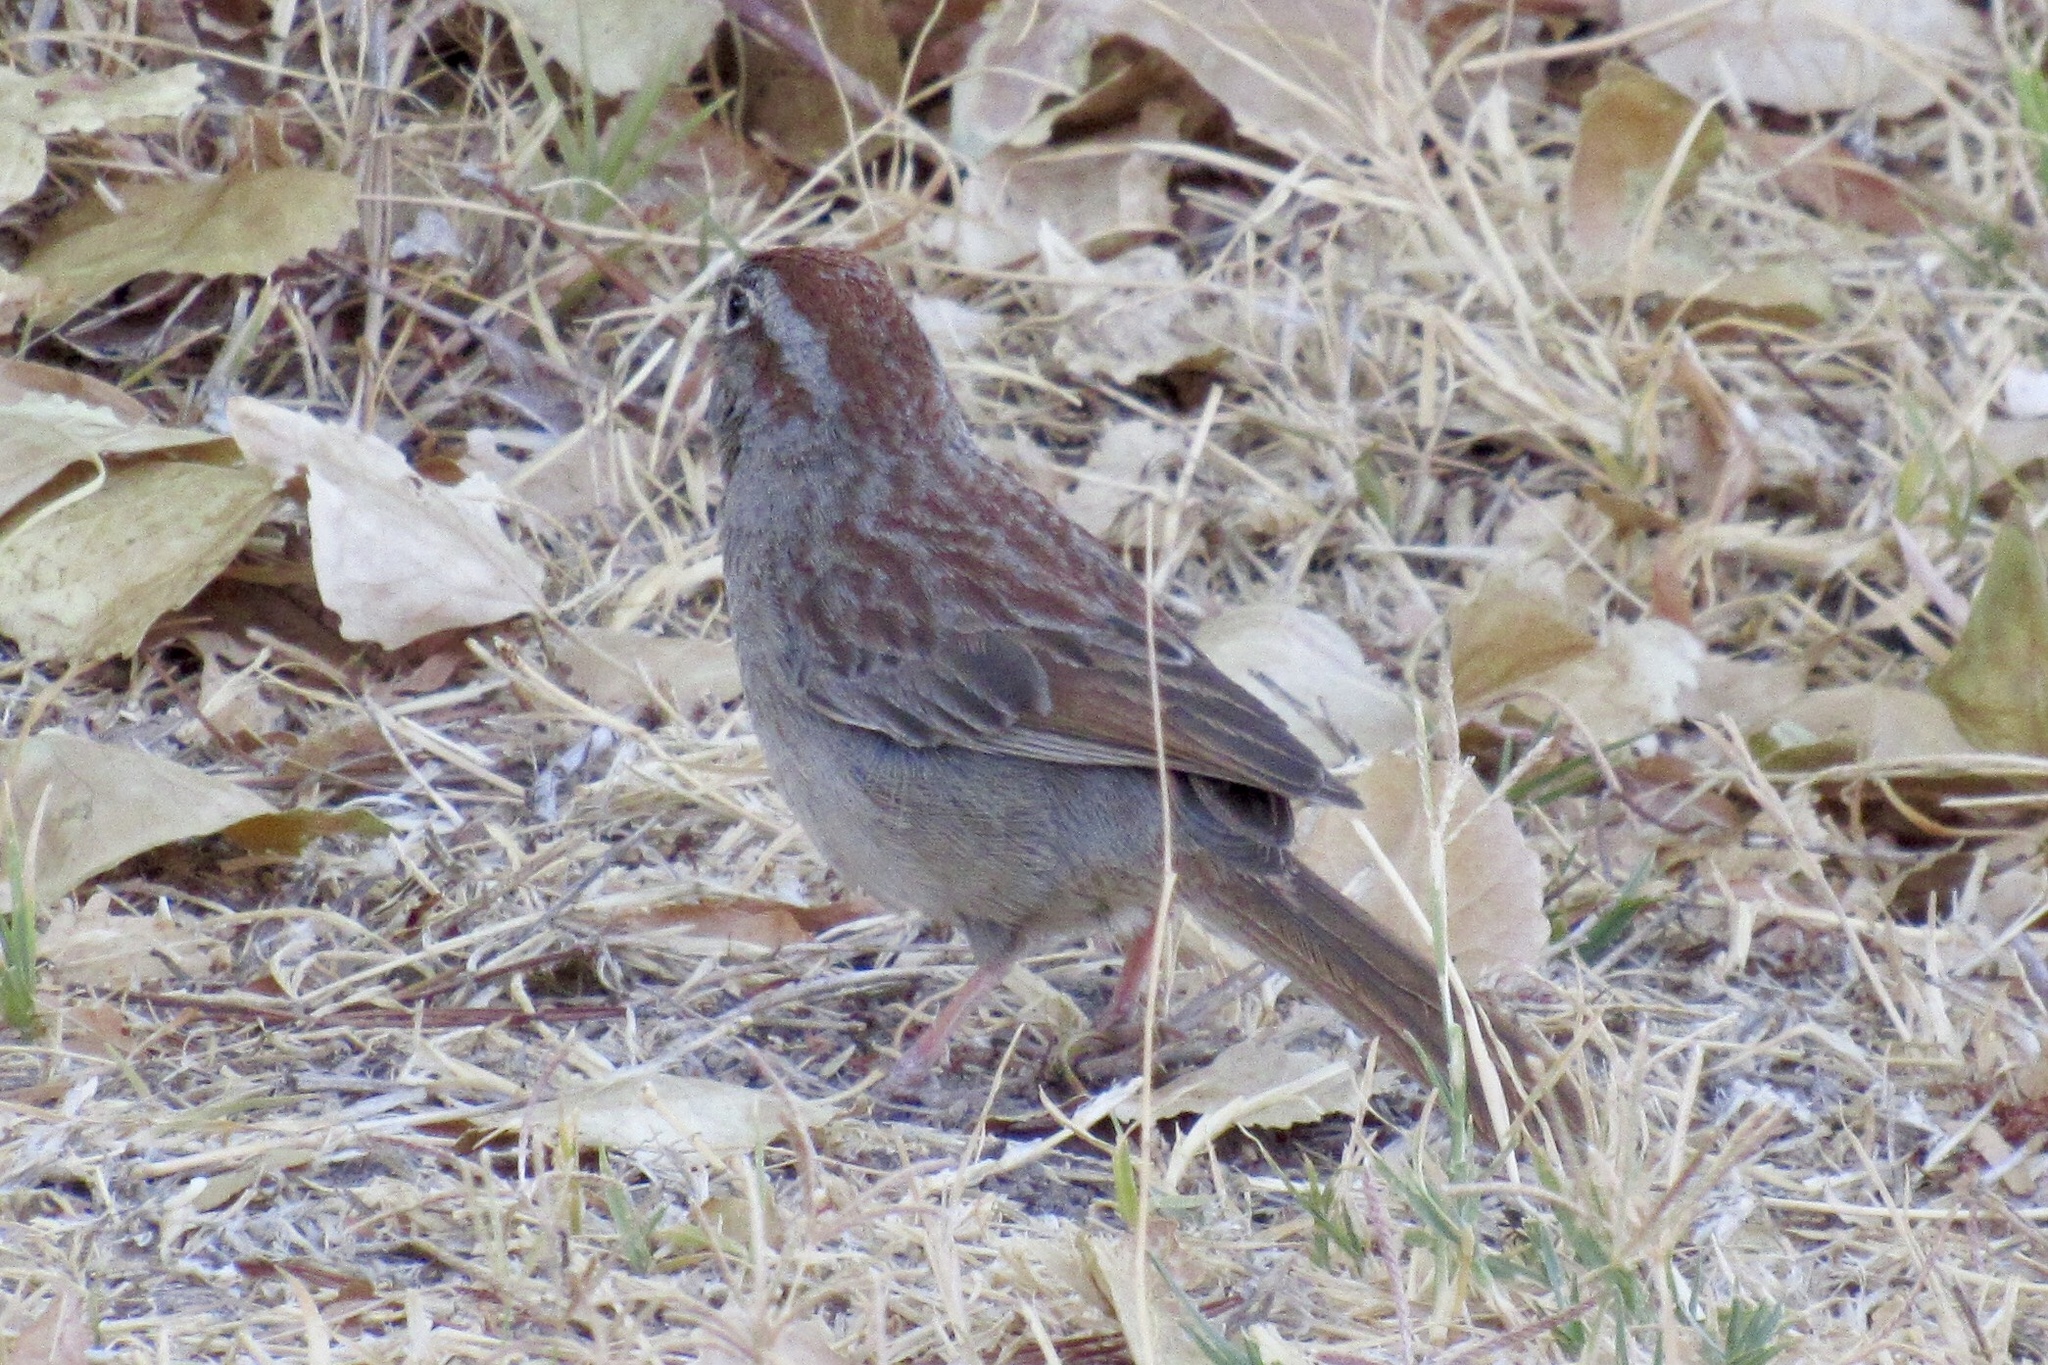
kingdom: Animalia
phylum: Chordata
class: Aves
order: Passeriformes
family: Passerellidae
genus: Aimophila
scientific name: Aimophila ruficeps
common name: Rufous-crowned sparrow
